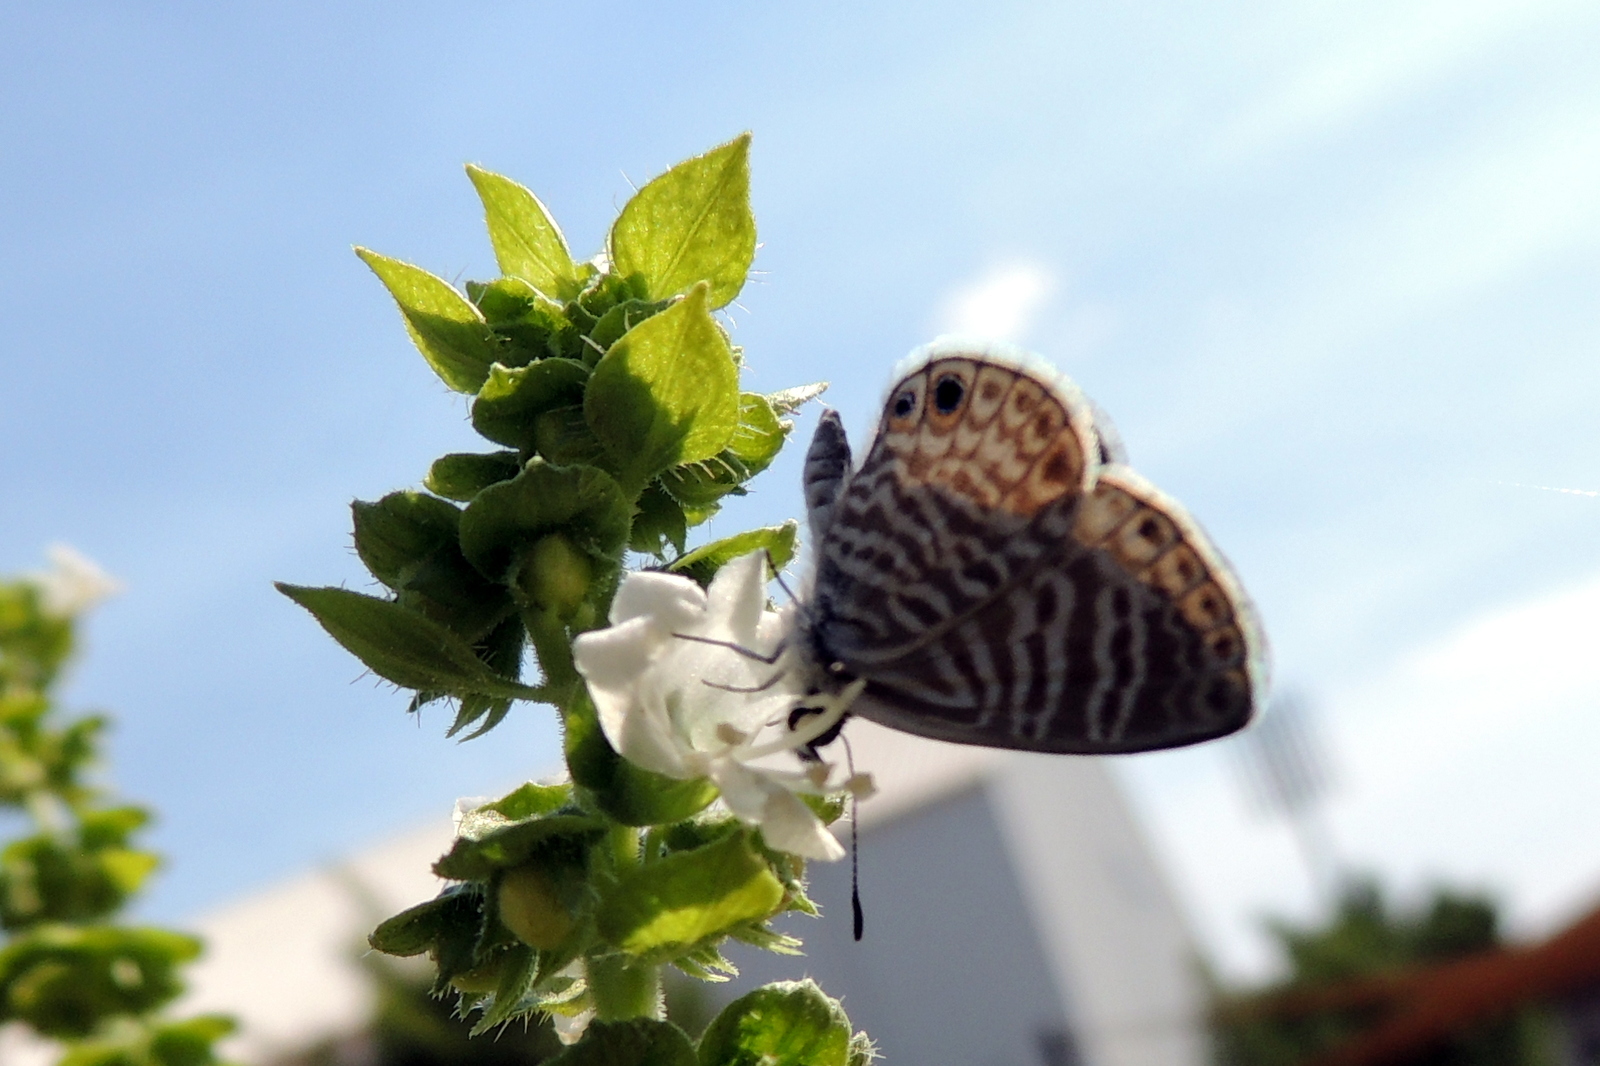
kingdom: Animalia
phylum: Arthropoda
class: Insecta
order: Lepidoptera
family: Lycaenidae
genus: Leptotes
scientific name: Leptotes marina
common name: Marine blue
